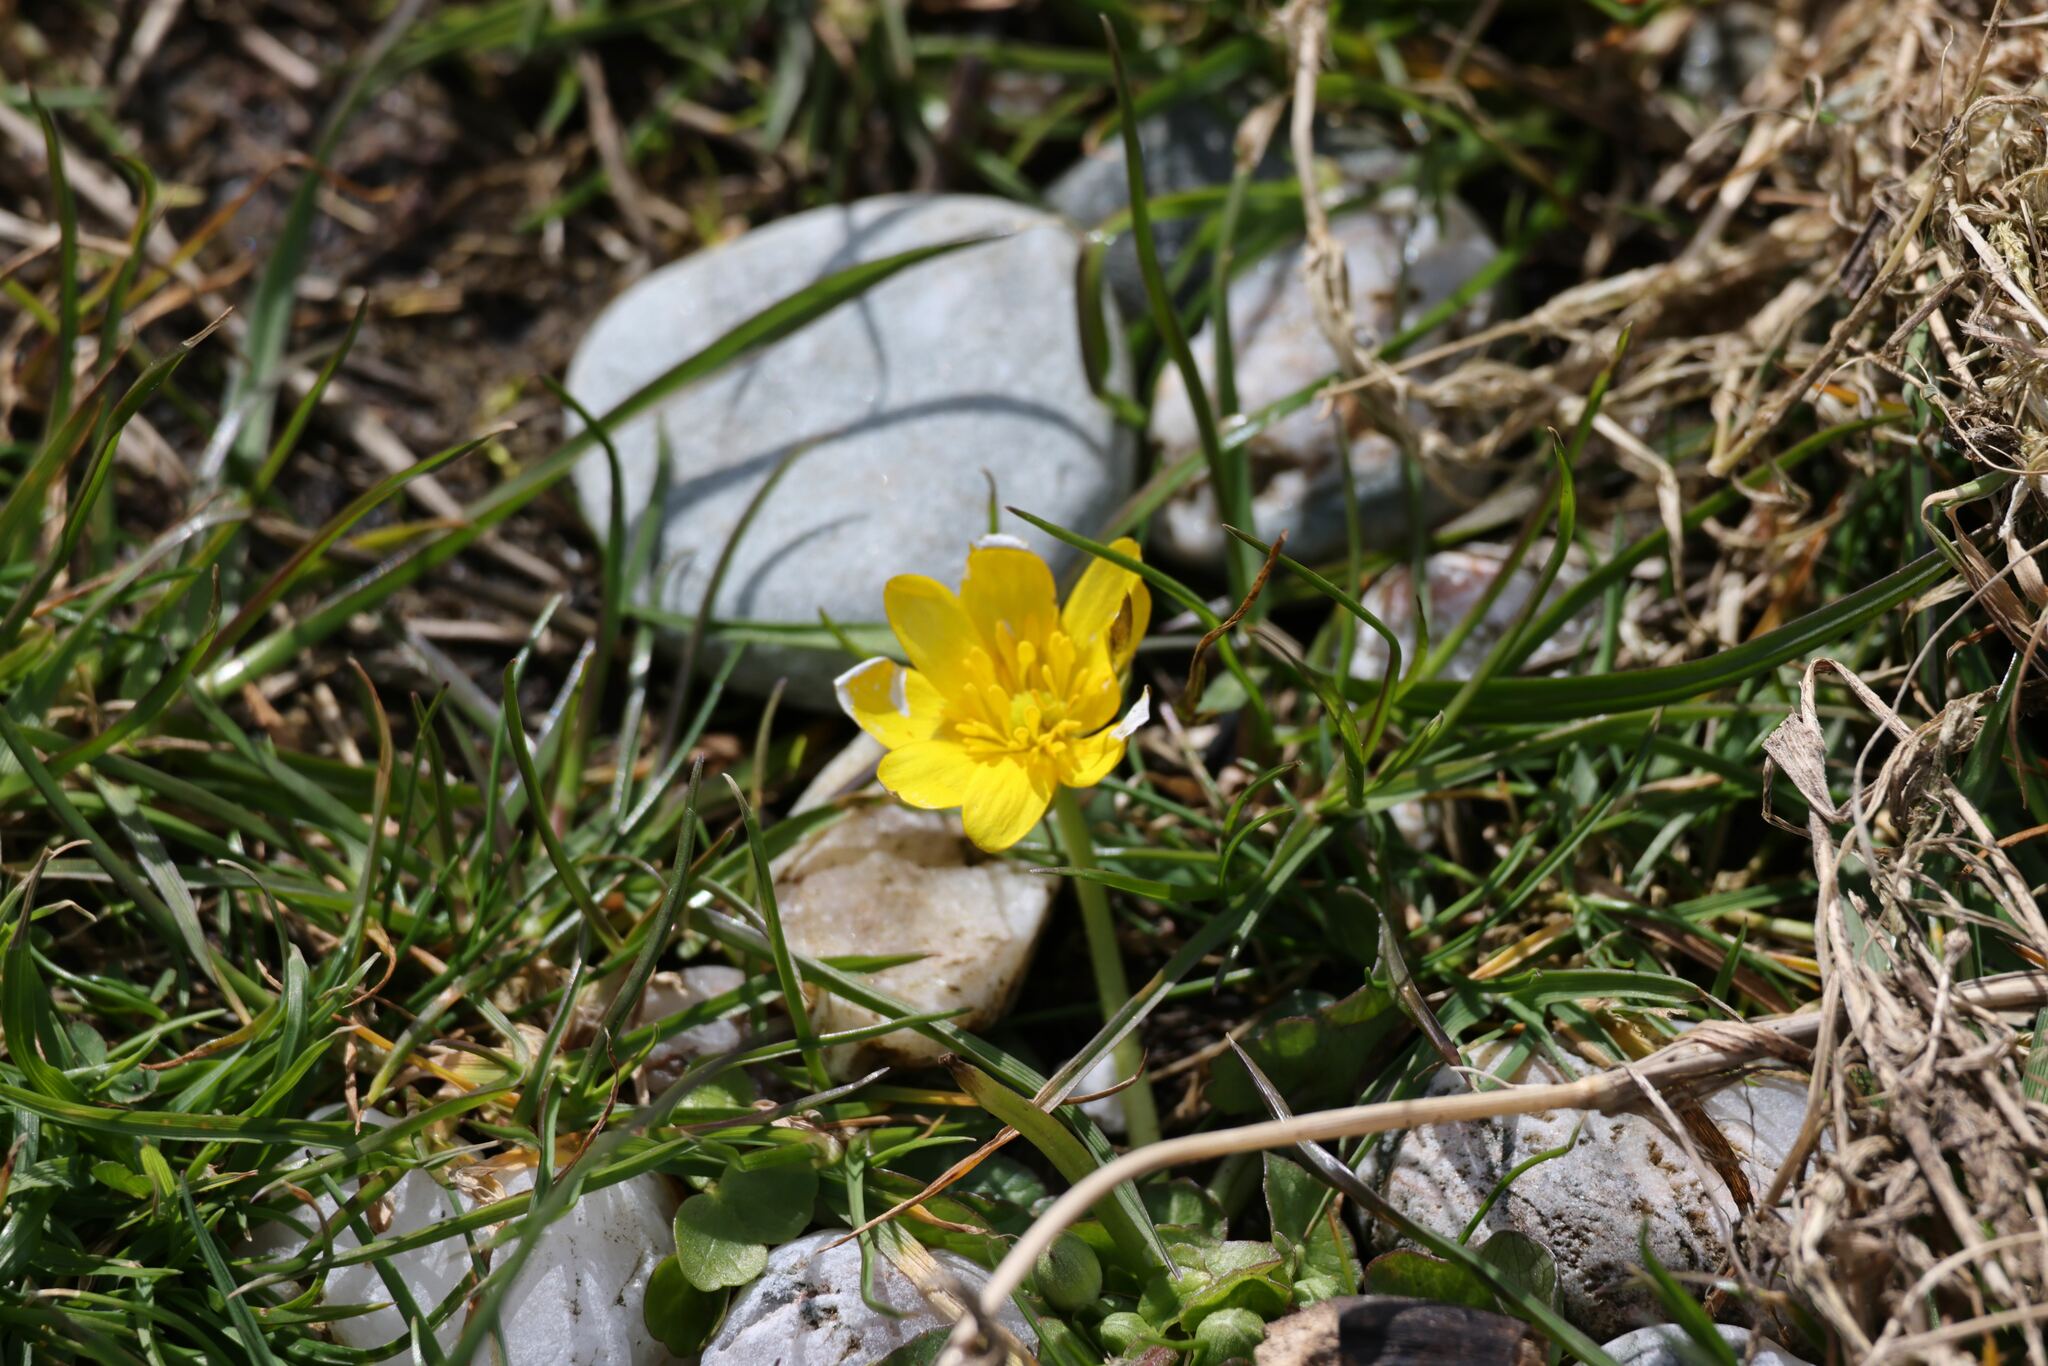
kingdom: Plantae
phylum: Tracheophyta
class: Magnoliopsida
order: Ranunculales
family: Ranunculaceae
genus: Ficaria
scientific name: Ficaria verna
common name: Lesser celandine
